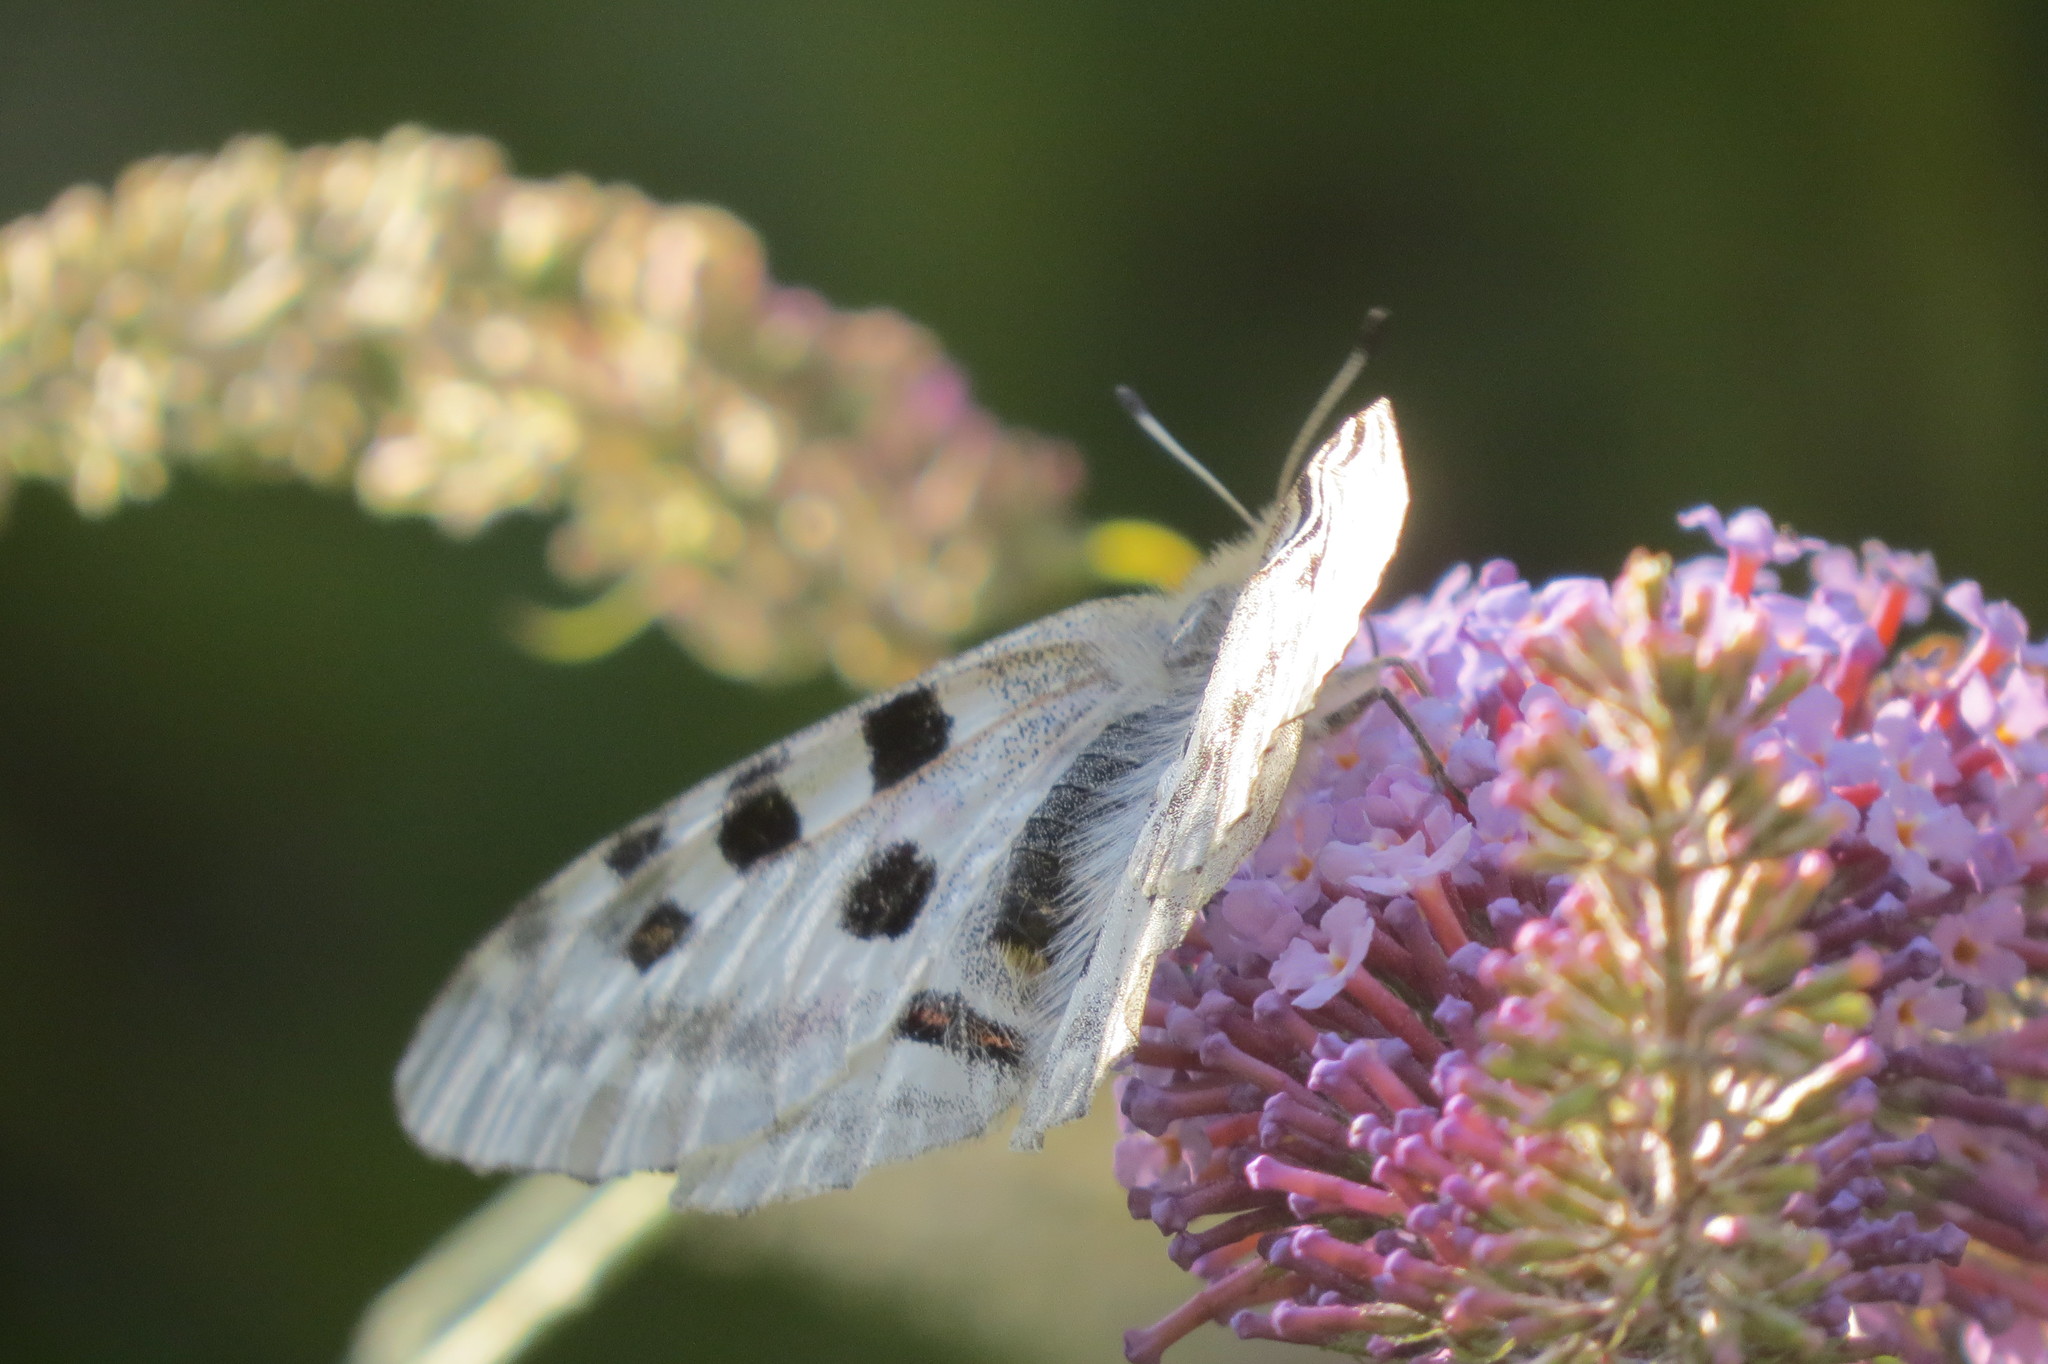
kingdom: Animalia
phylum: Arthropoda
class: Insecta
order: Lepidoptera
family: Papilionidae
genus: Parnassius
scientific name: Parnassius apollo
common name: Apollo
